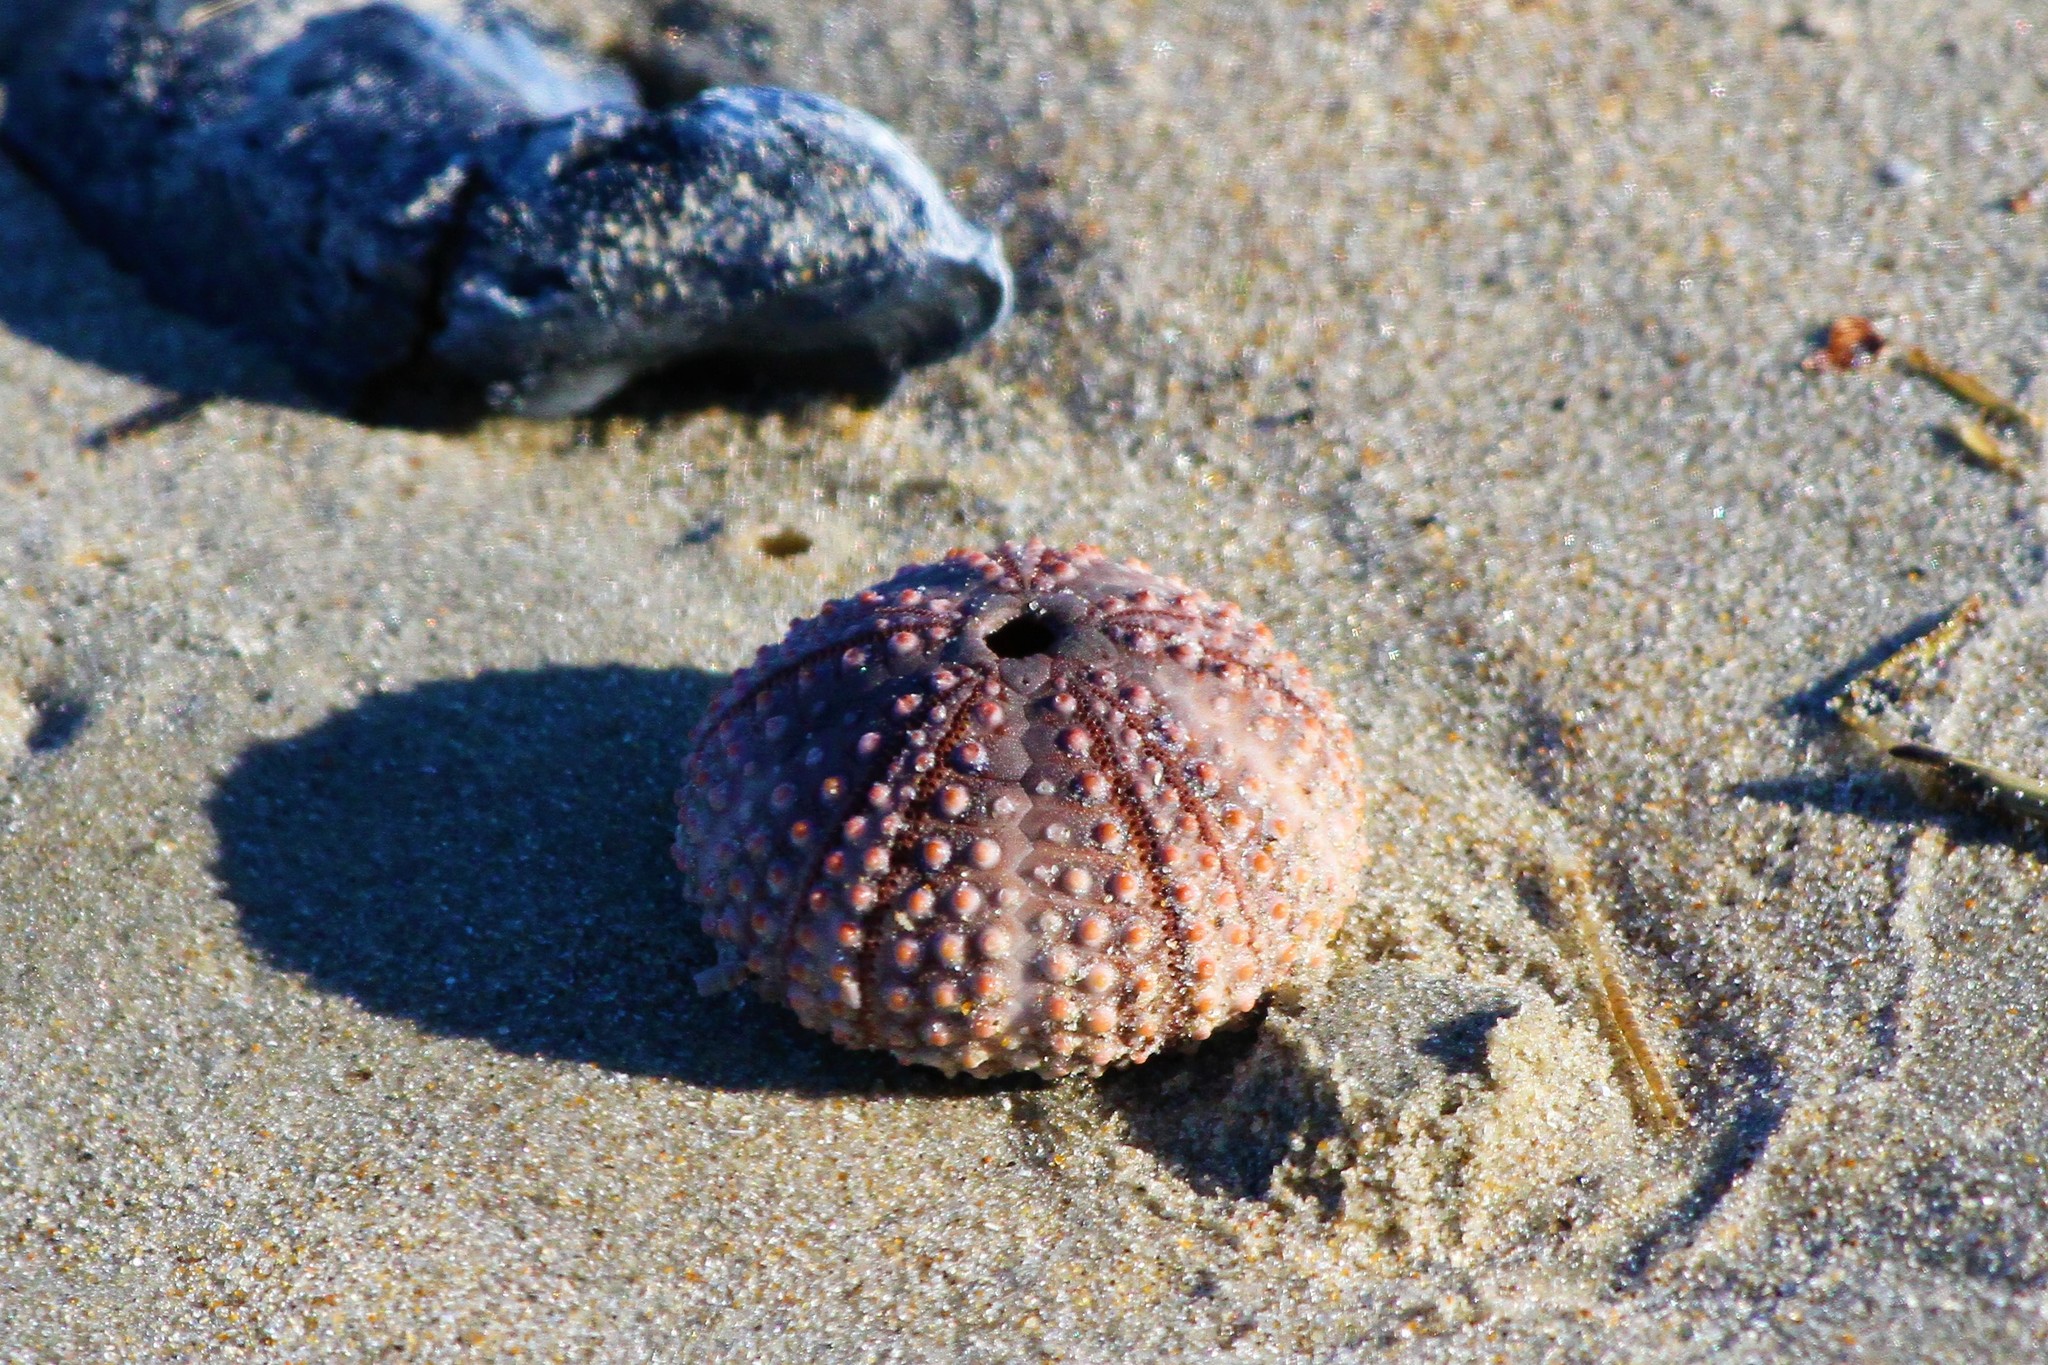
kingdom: Animalia
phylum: Echinodermata
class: Echinoidea
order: Arbacioida
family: Arbaciidae
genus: Arbacia
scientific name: Arbacia punctulata
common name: Purple-spined sea urchin
